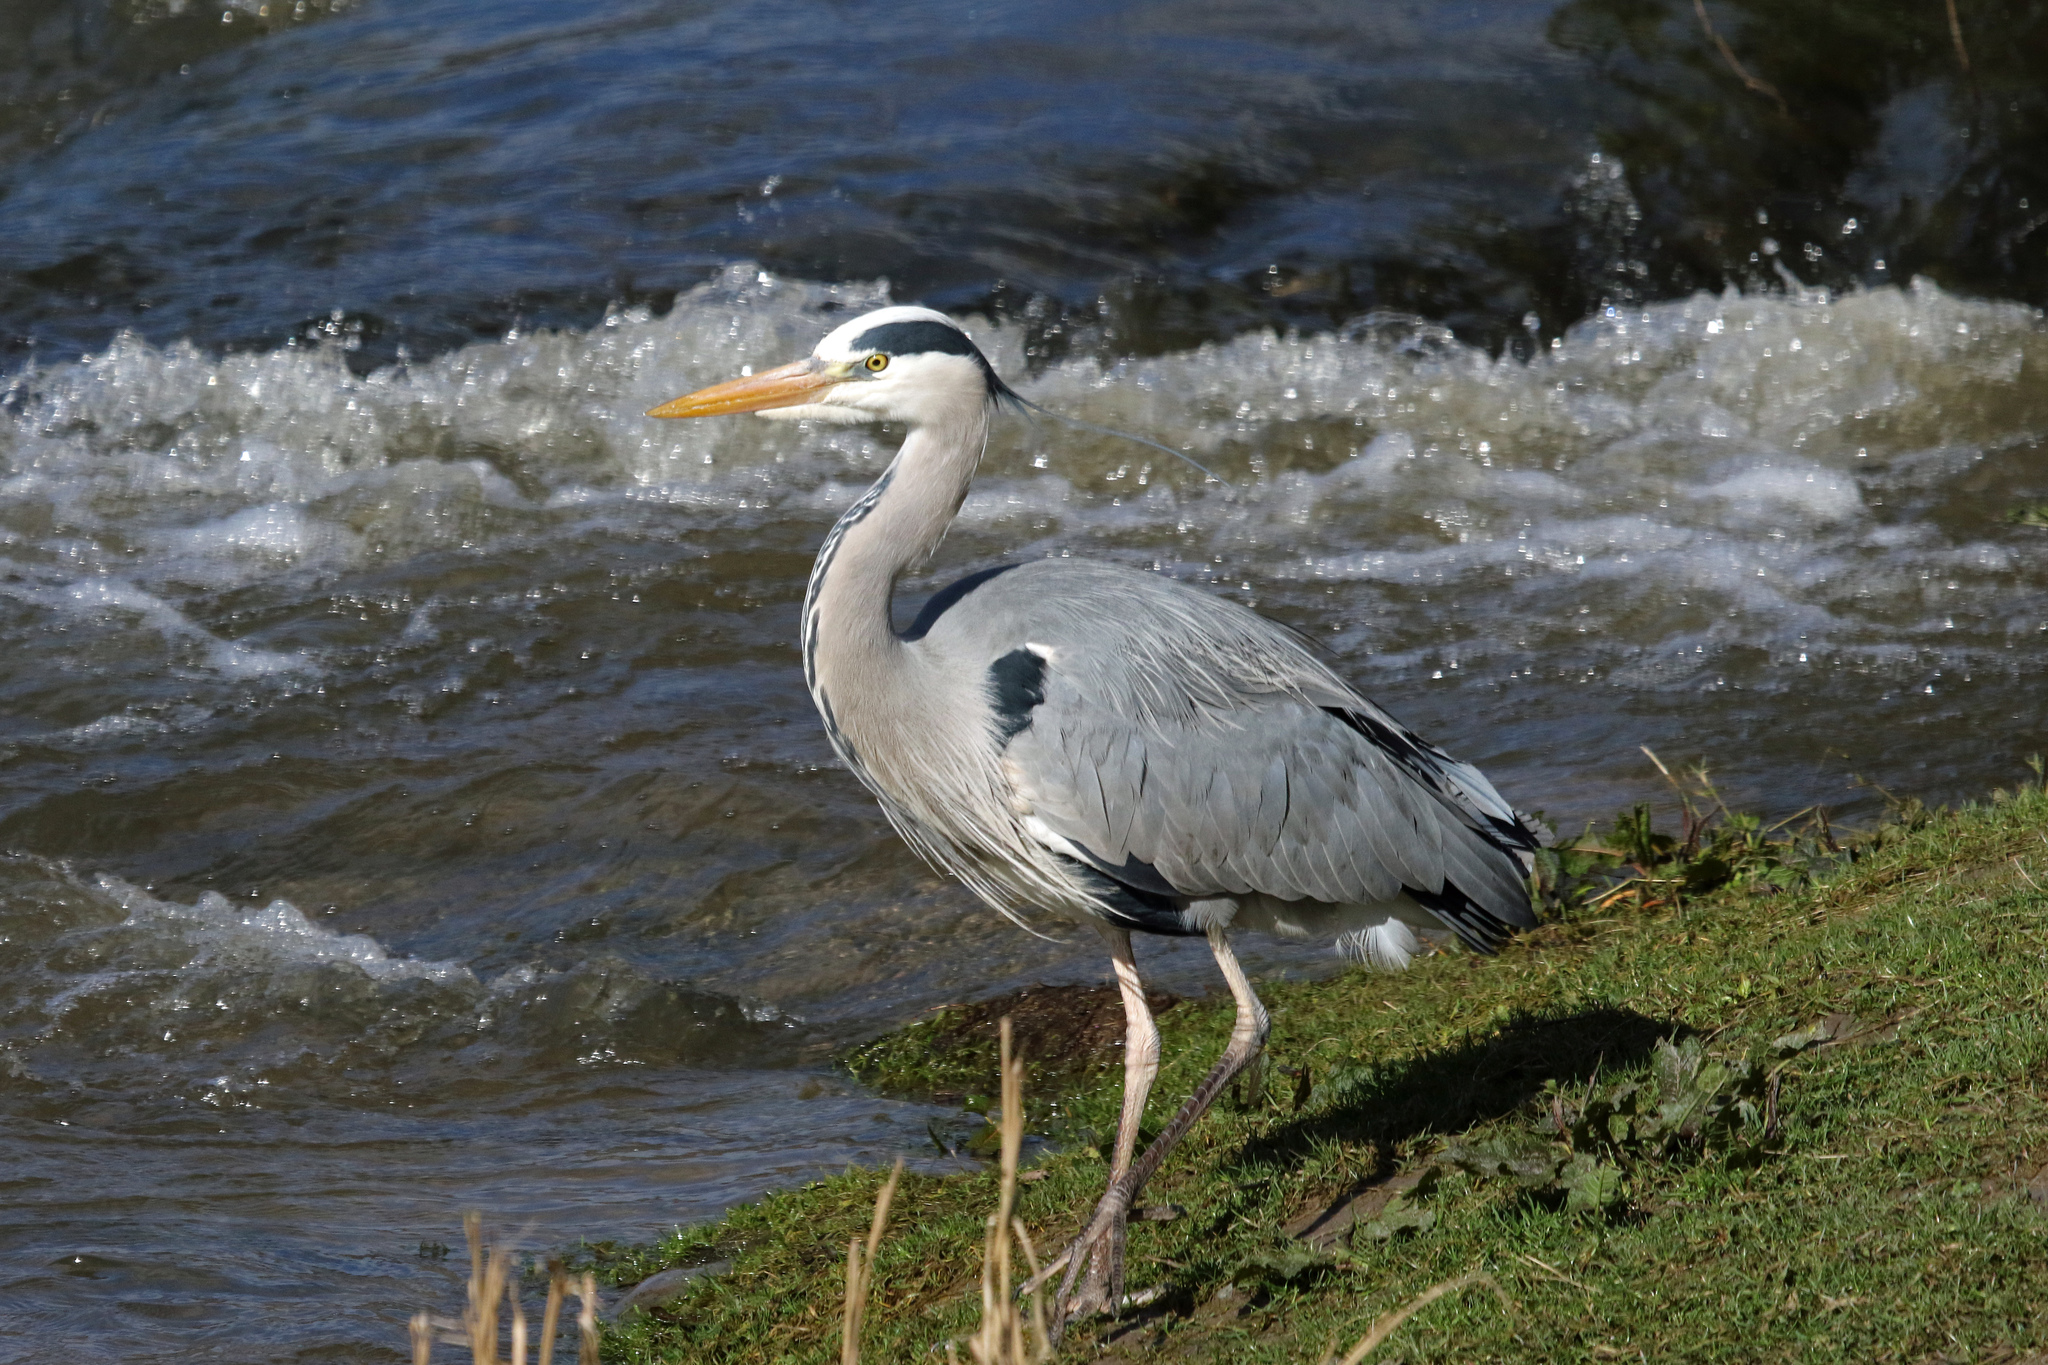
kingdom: Animalia
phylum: Chordata
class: Aves
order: Pelecaniformes
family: Ardeidae
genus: Ardea
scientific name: Ardea cinerea
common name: Grey heron
